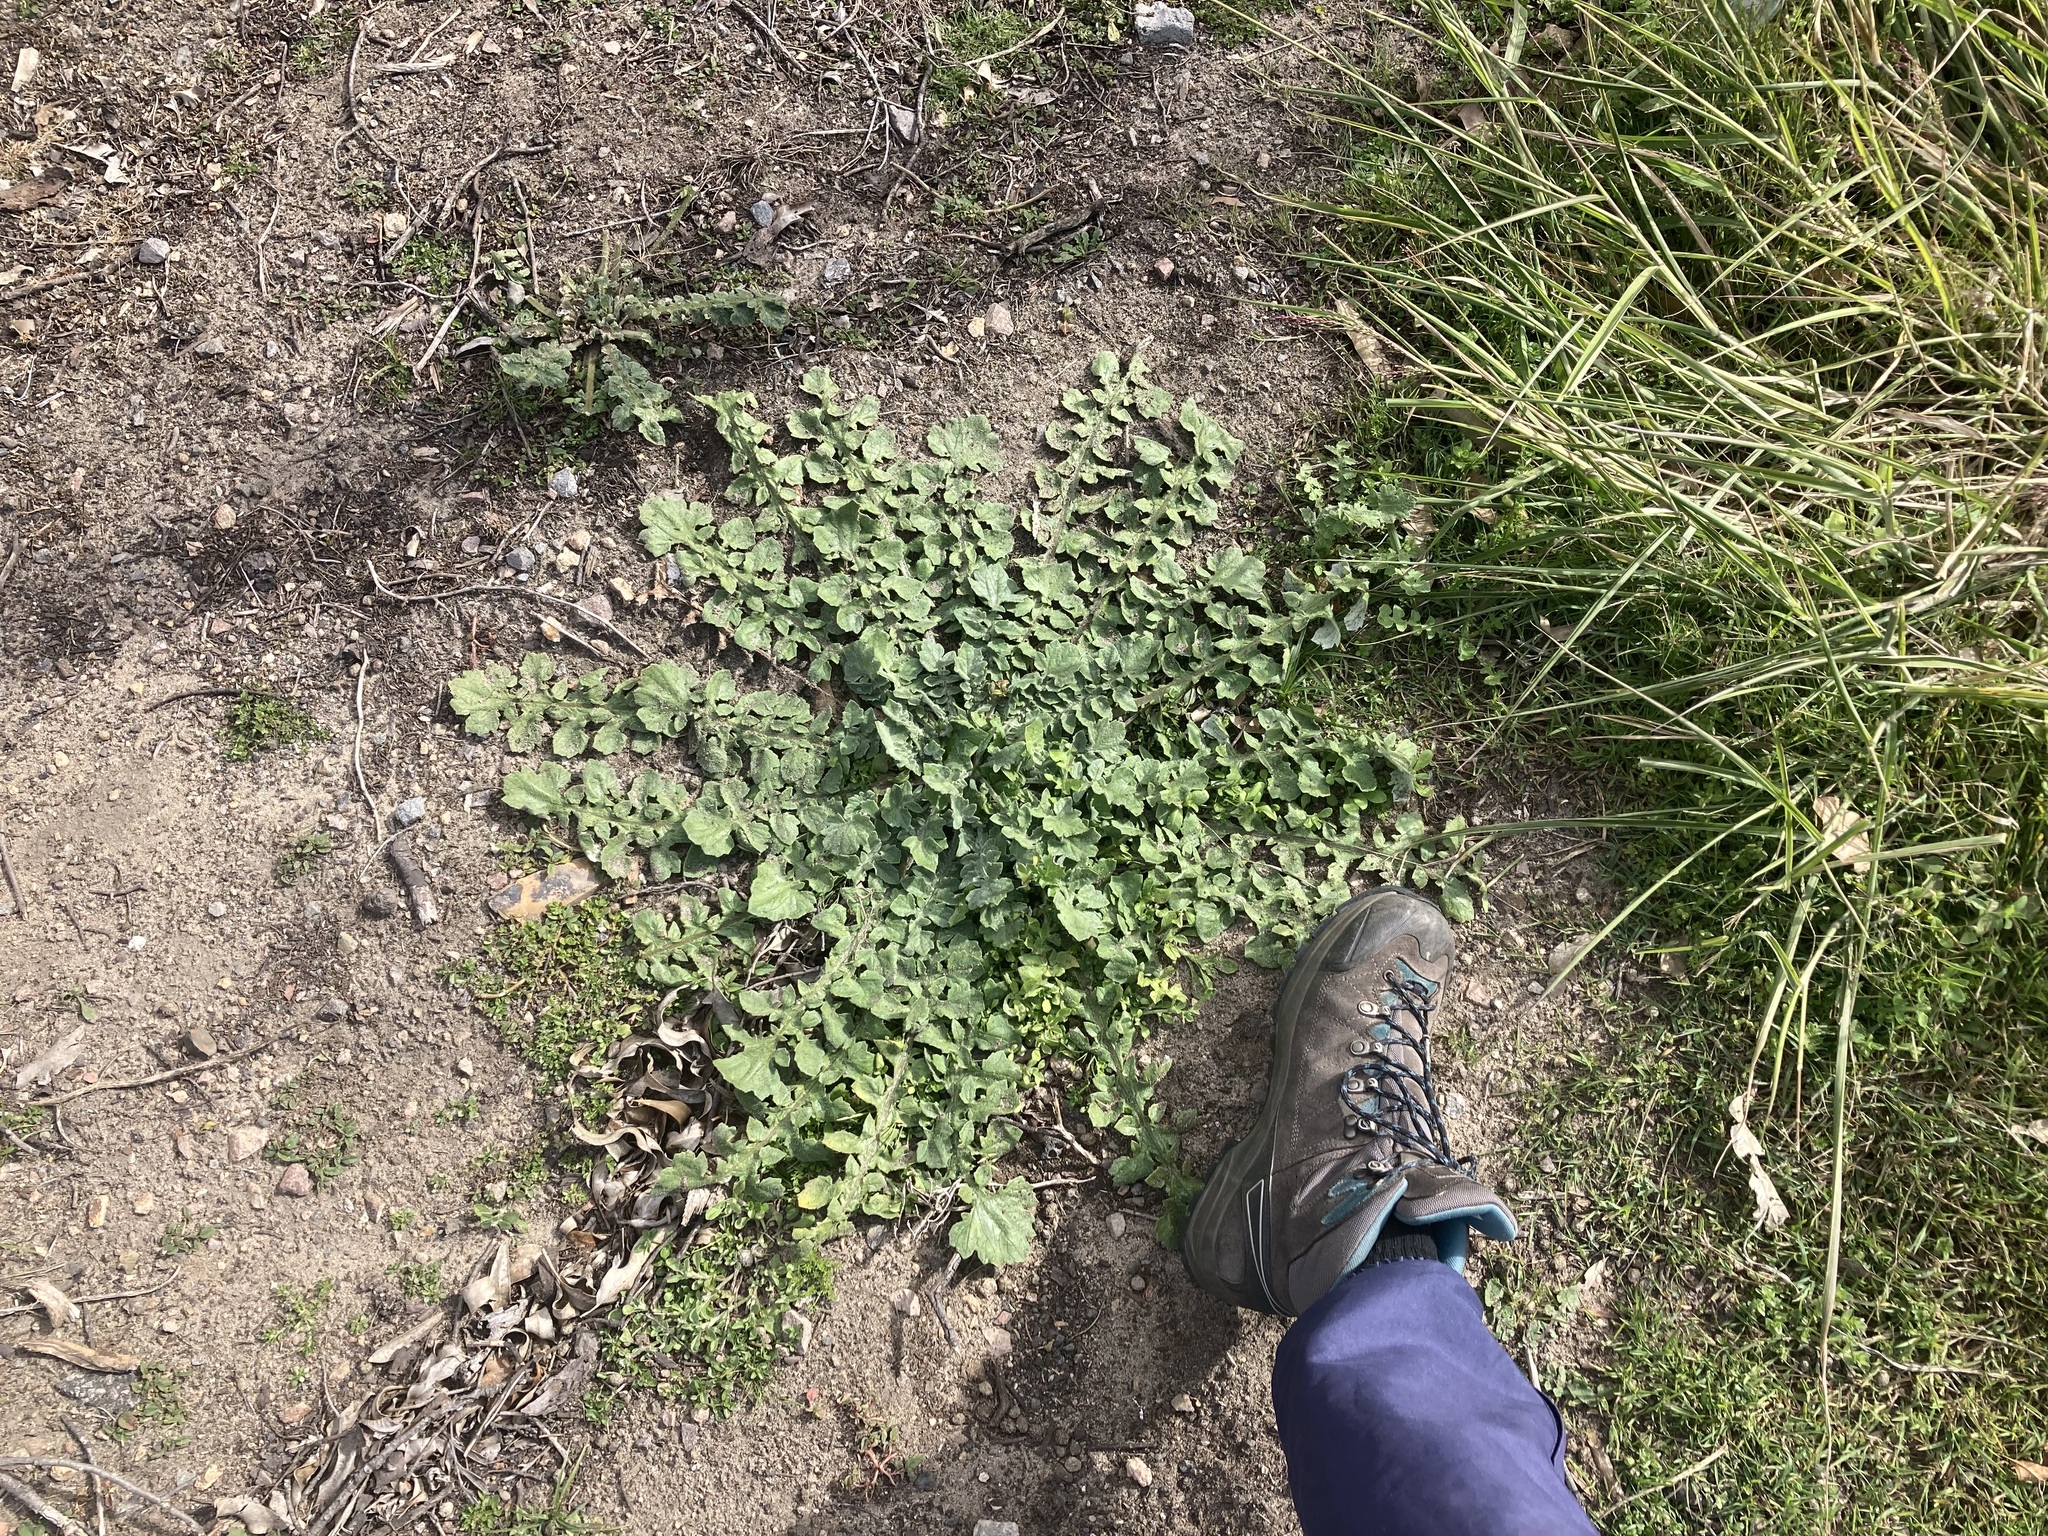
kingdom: Plantae
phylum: Tracheophyta
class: Magnoliopsida
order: Asterales
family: Asteraceae
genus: Arctotheca
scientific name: Arctotheca calendula
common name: Capeweed
